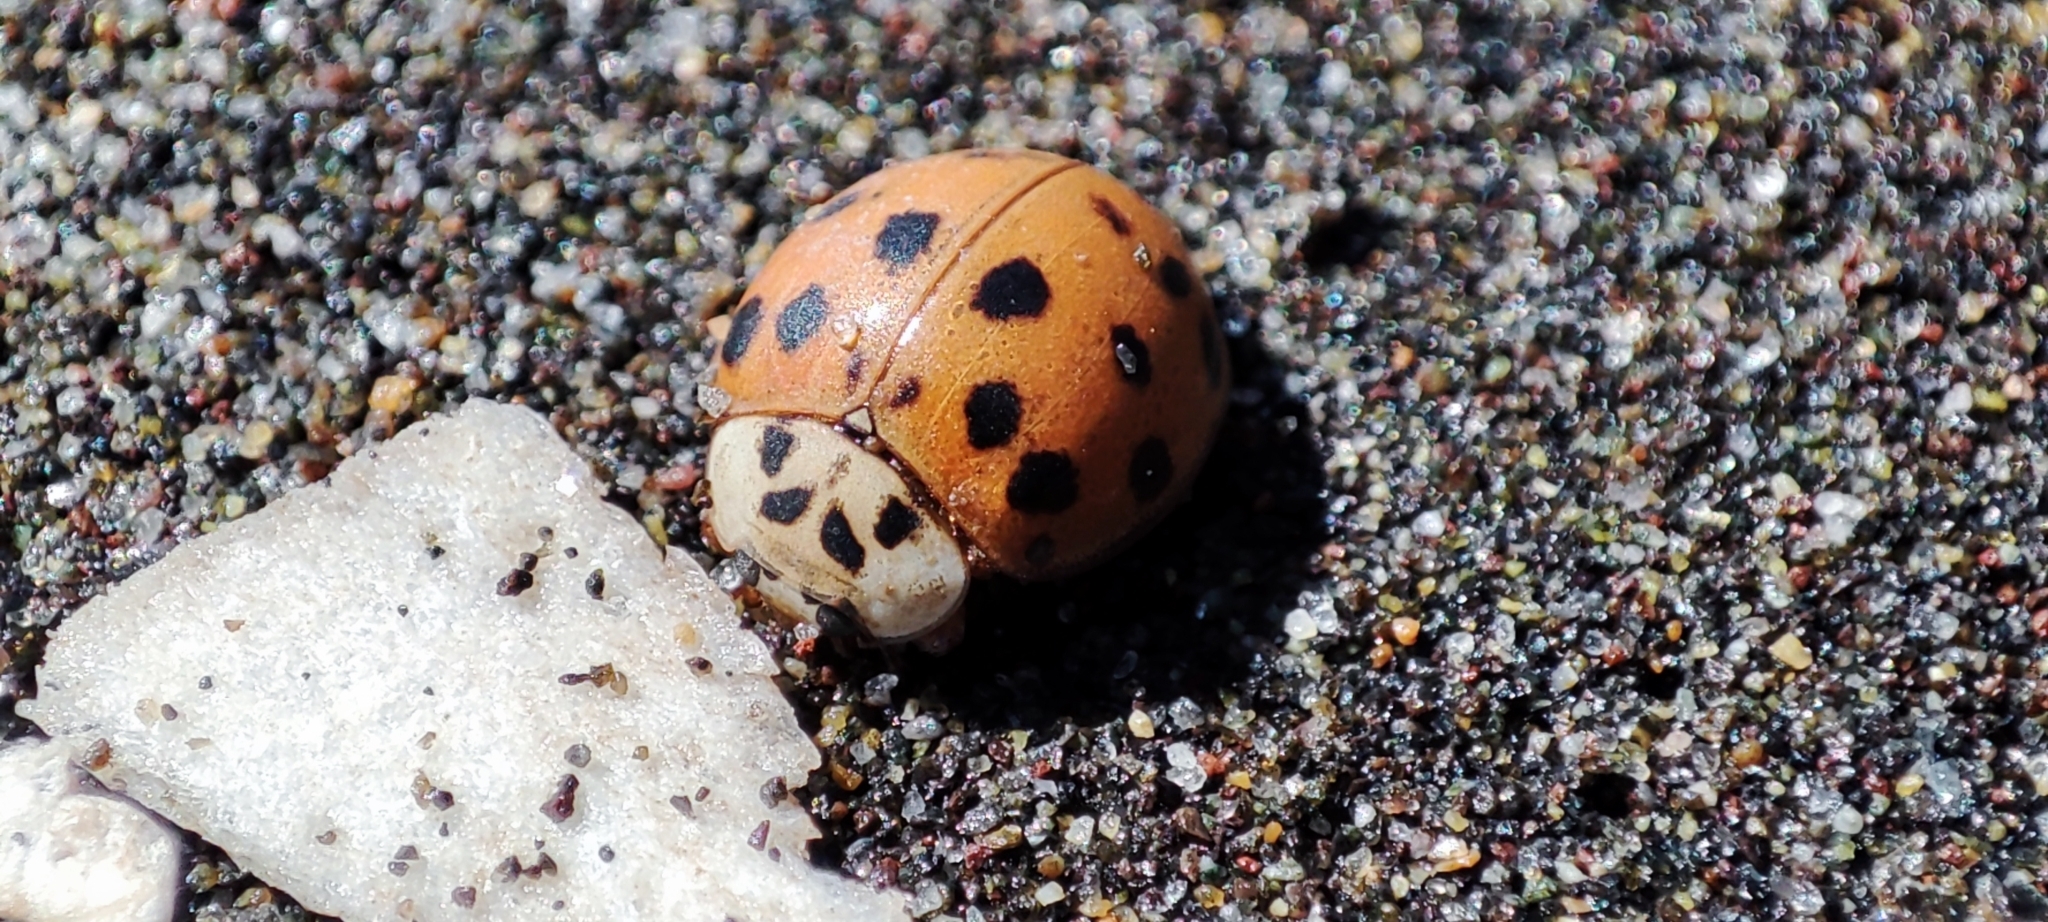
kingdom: Animalia
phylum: Arthropoda
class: Insecta
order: Coleoptera
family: Coccinellidae
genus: Harmonia
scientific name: Harmonia axyridis
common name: Harlequin ladybird
